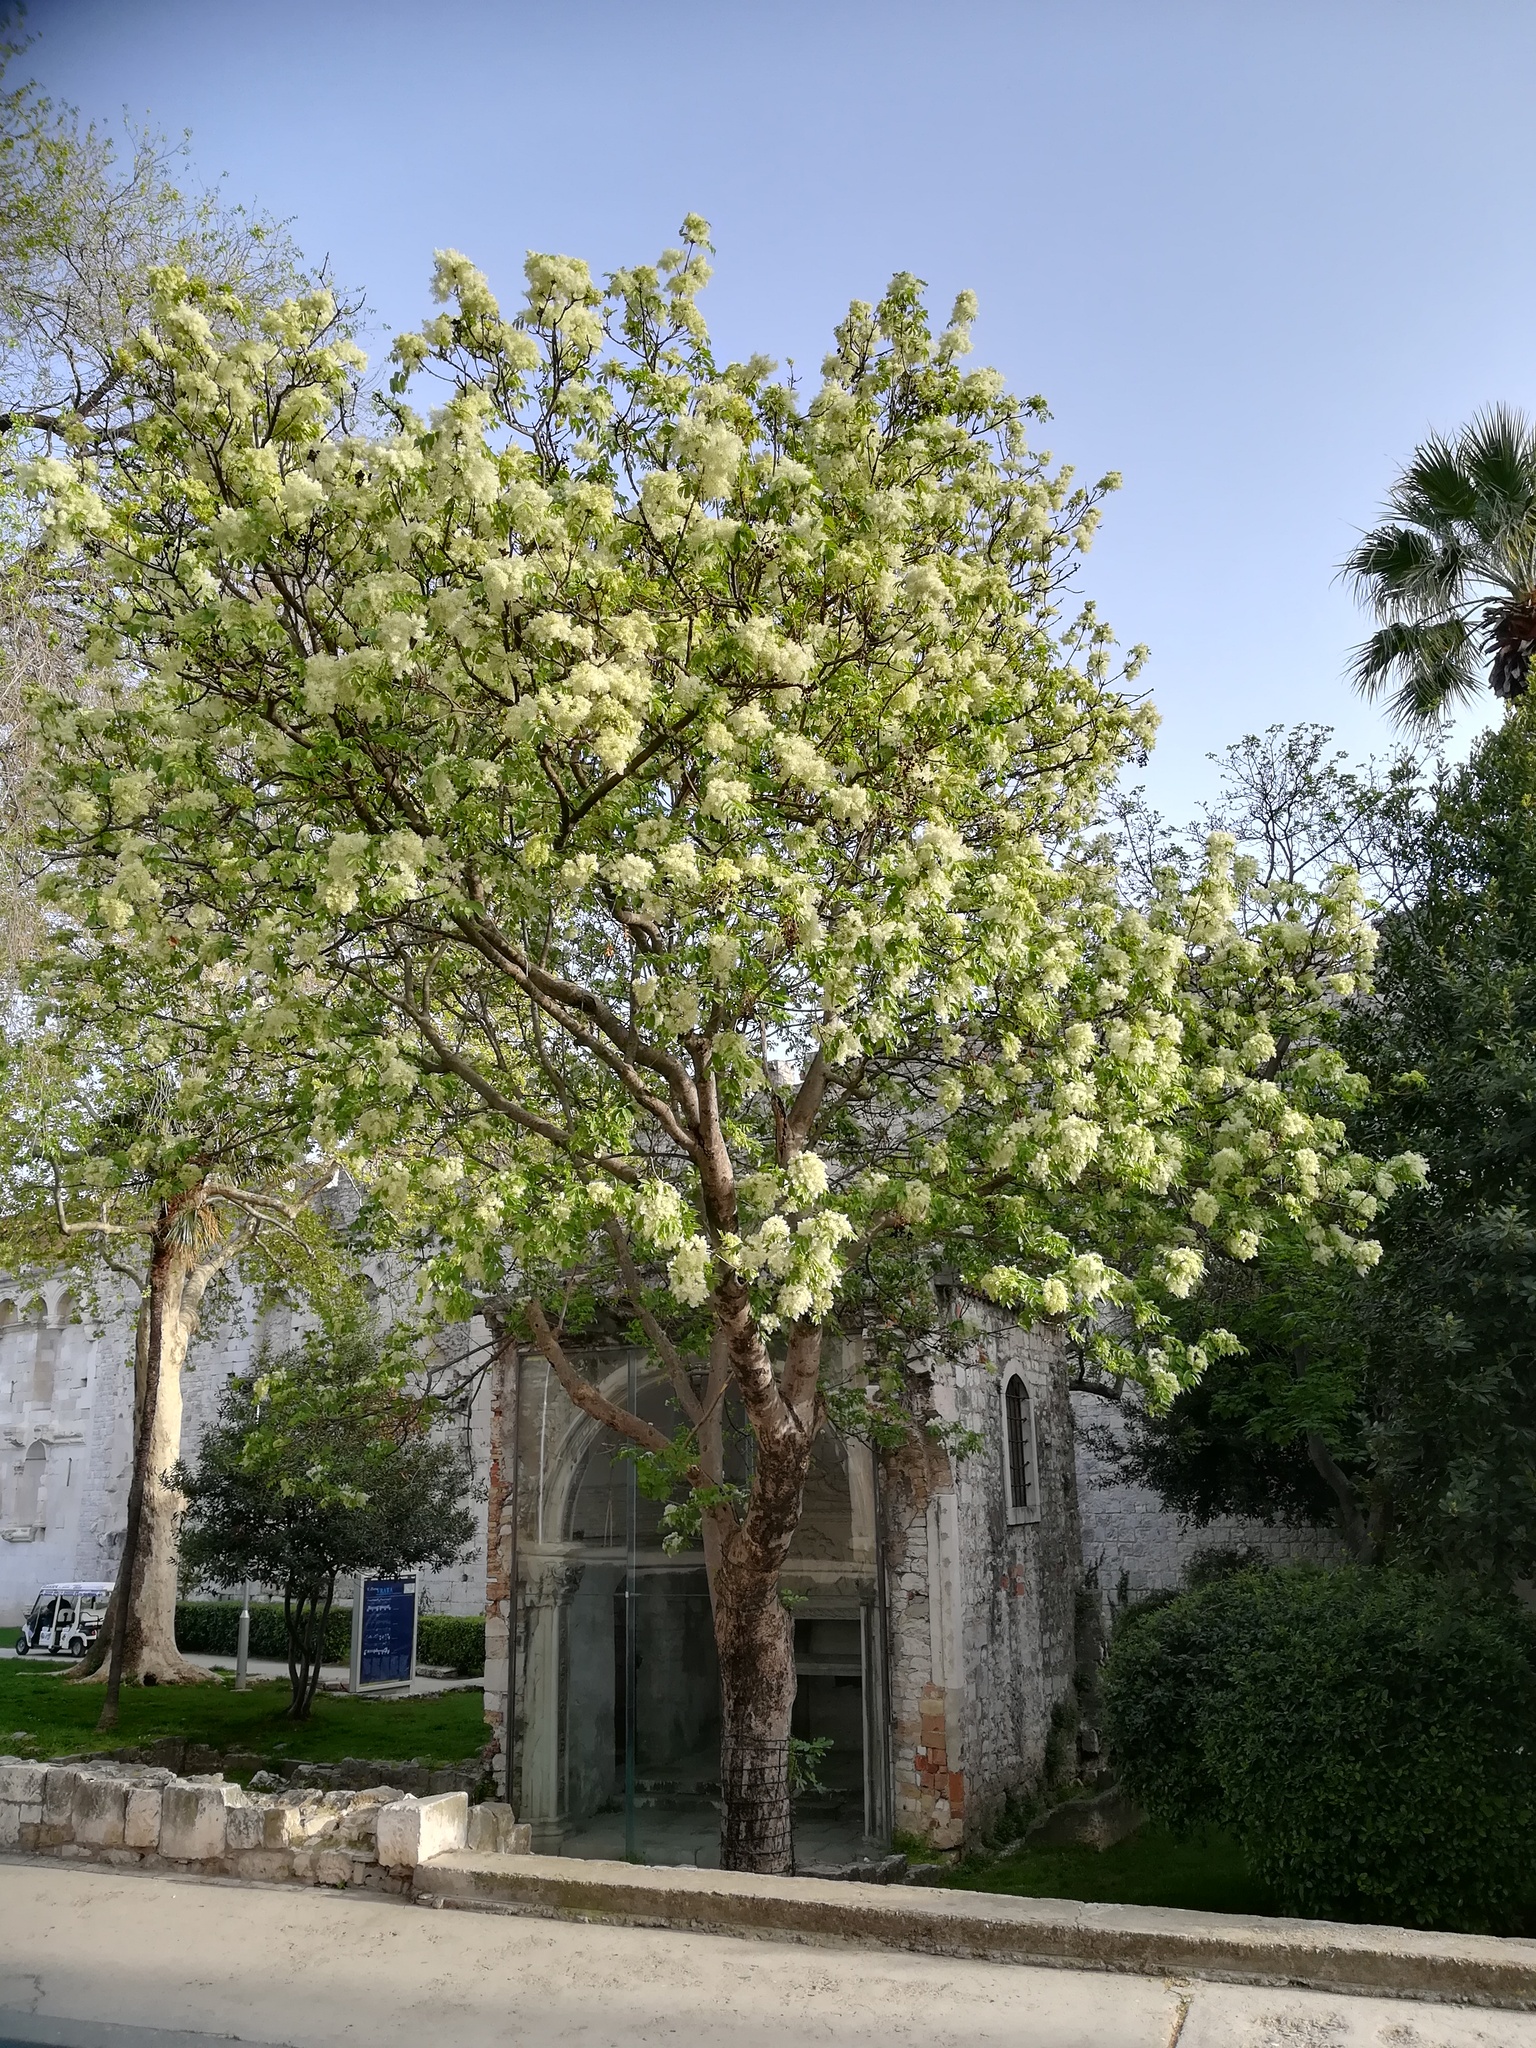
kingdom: Plantae
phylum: Tracheophyta
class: Magnoliopsida
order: Lamiales
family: Oleaceae
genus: Fraxinus
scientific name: Fraxinus ornus
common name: Manna ash
